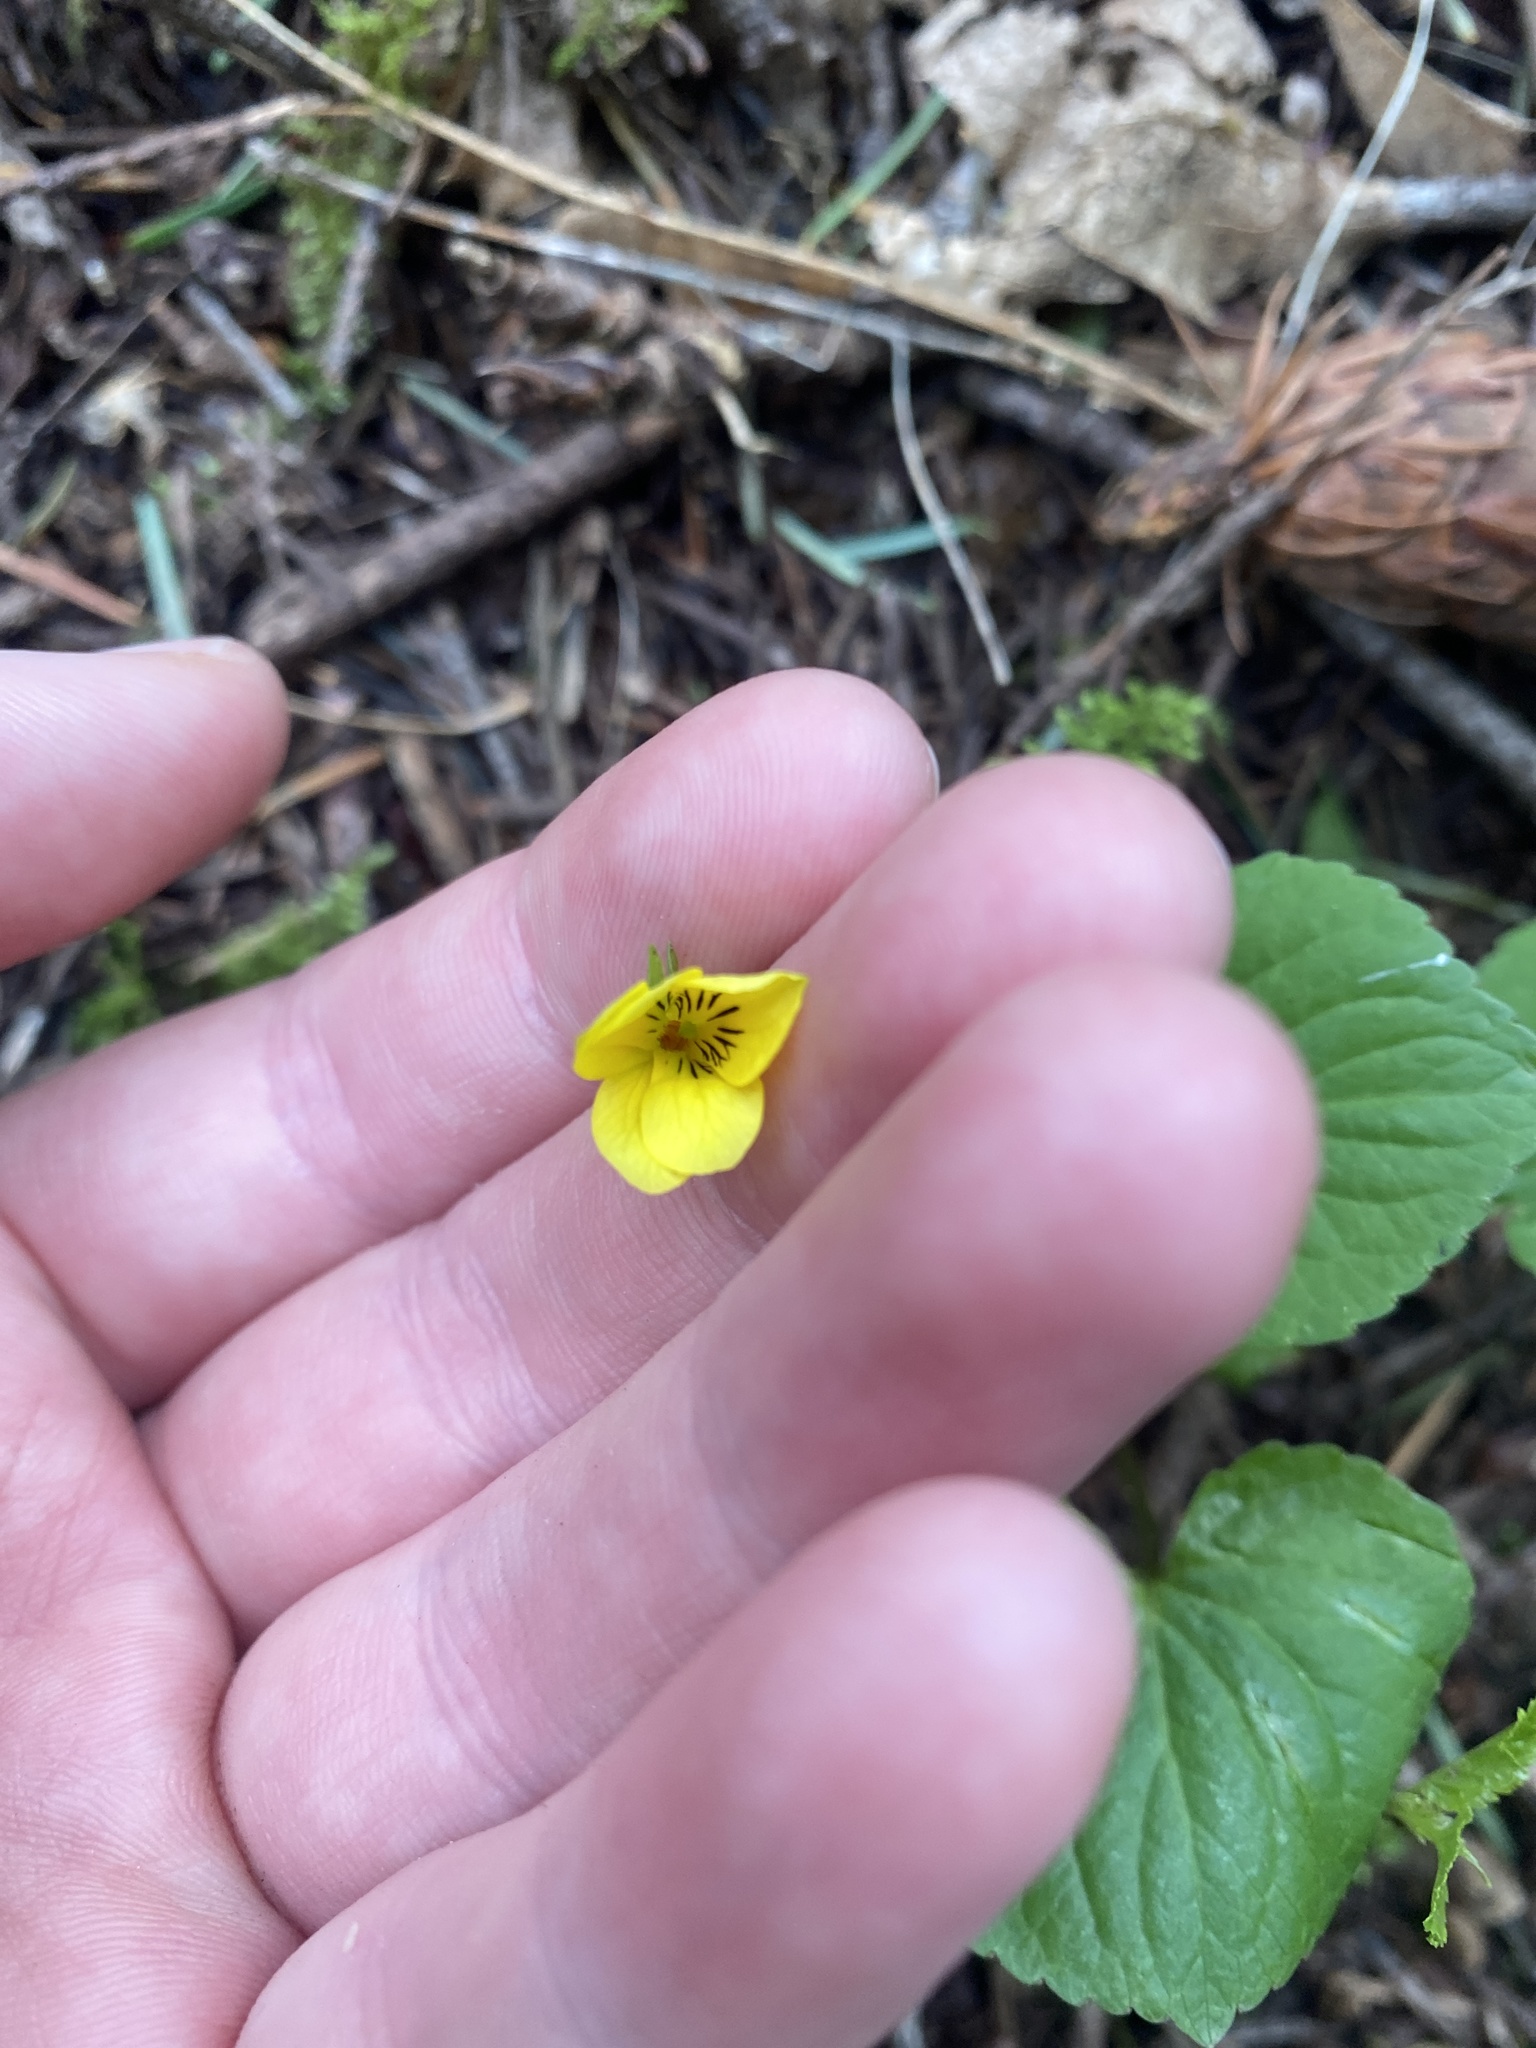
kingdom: Plantae
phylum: Tracheophyta
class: Magnoliopsida
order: Malpighiales
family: Violaceae
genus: Viola
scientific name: Viola glabella
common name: Stream violet
